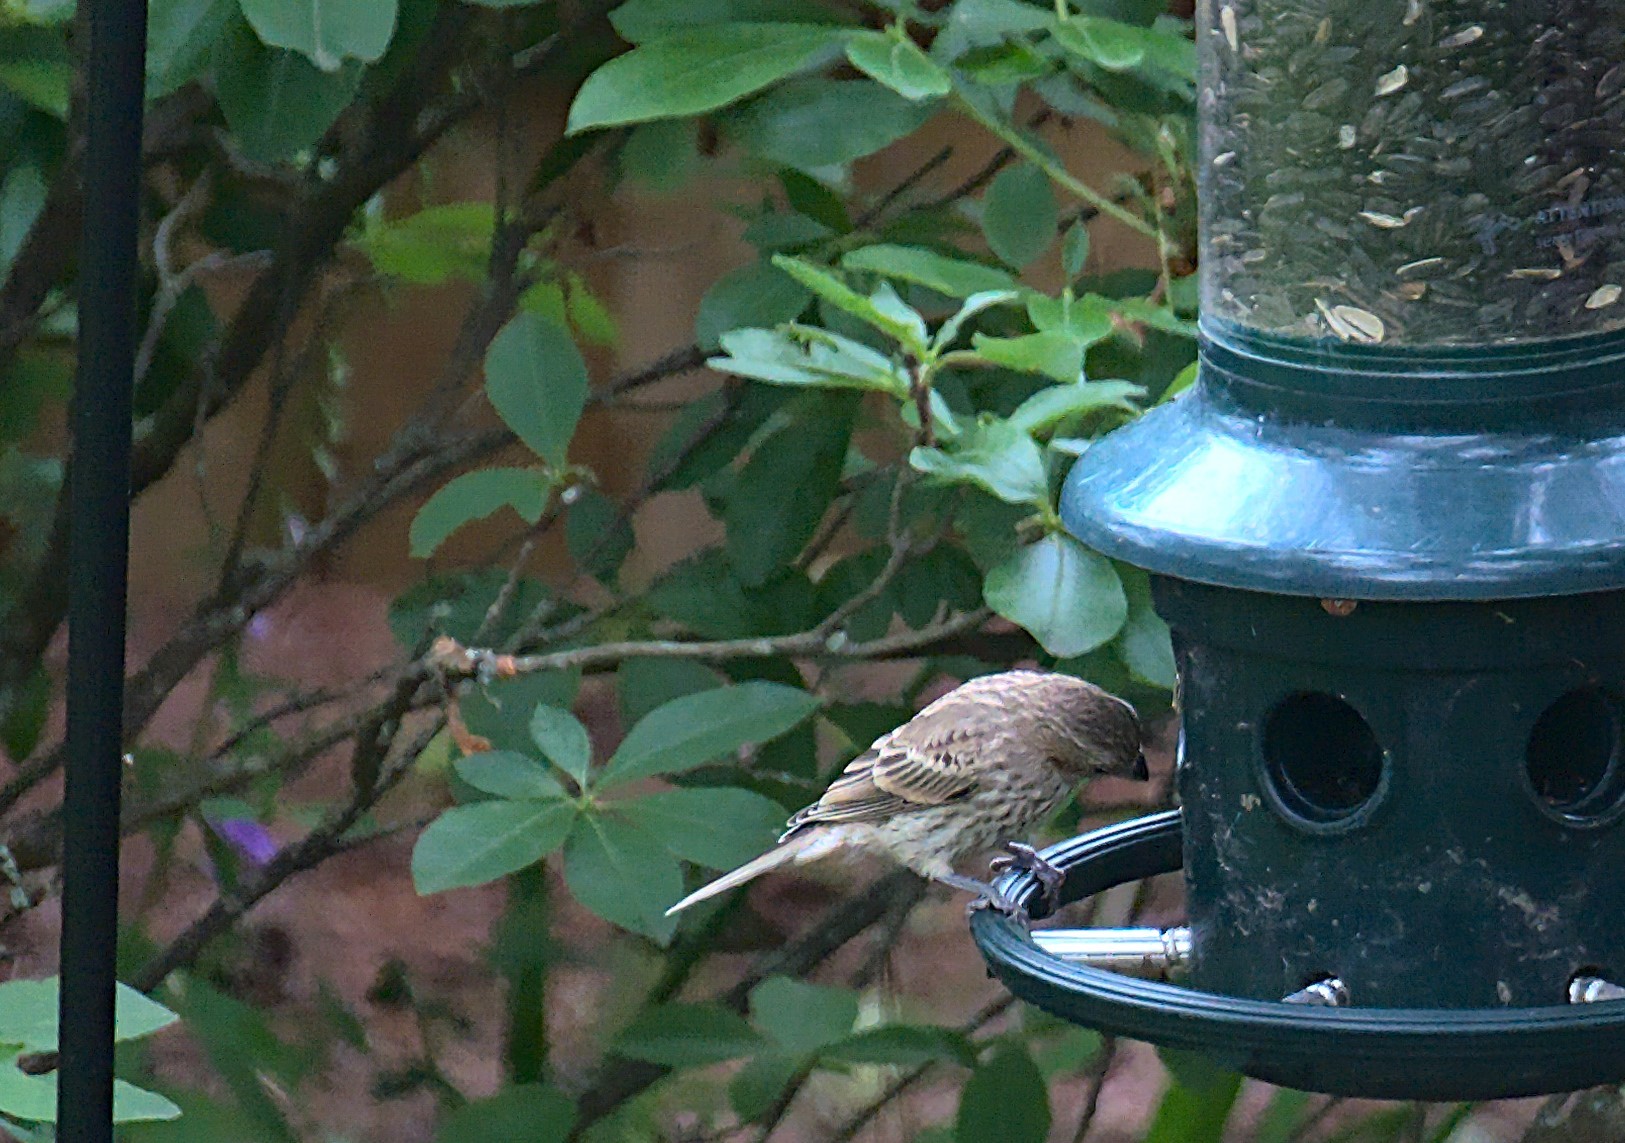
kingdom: Animalia
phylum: Chordata
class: Aves
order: Passeriformes
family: Fringillidae
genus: Haemorhous
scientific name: Haemorhous mexicanus
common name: House finch
